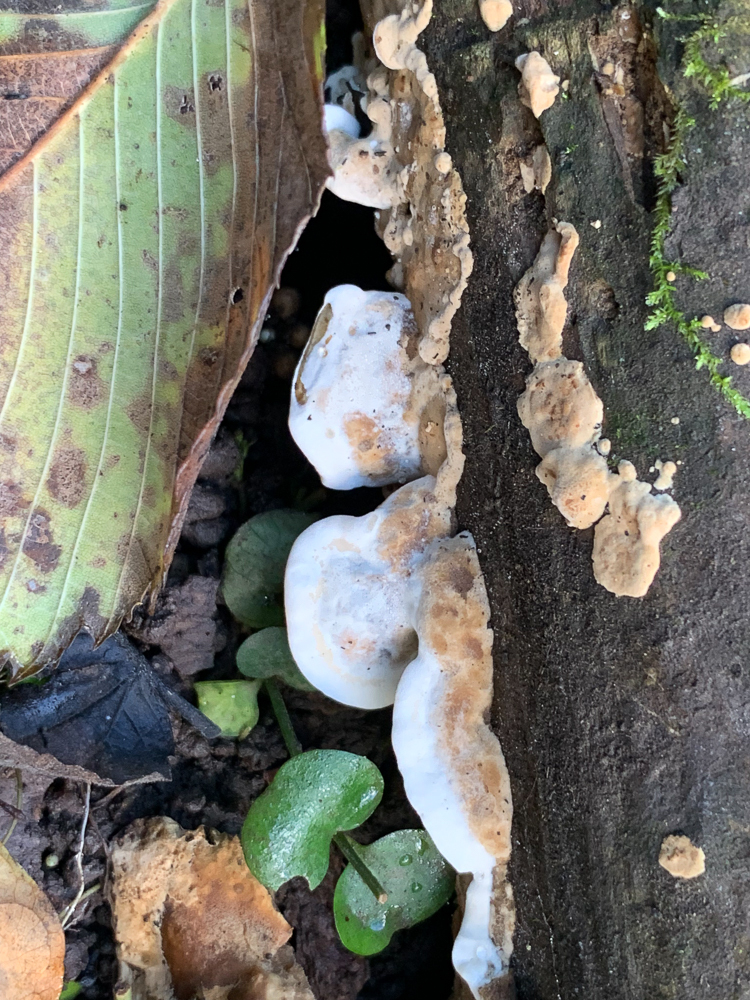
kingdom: Fungi
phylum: Basidiomycota
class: Agaricomycetes
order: Polyporales
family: Irpicaceae
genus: Vitreoporus
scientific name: Vitreoporus dichrous
